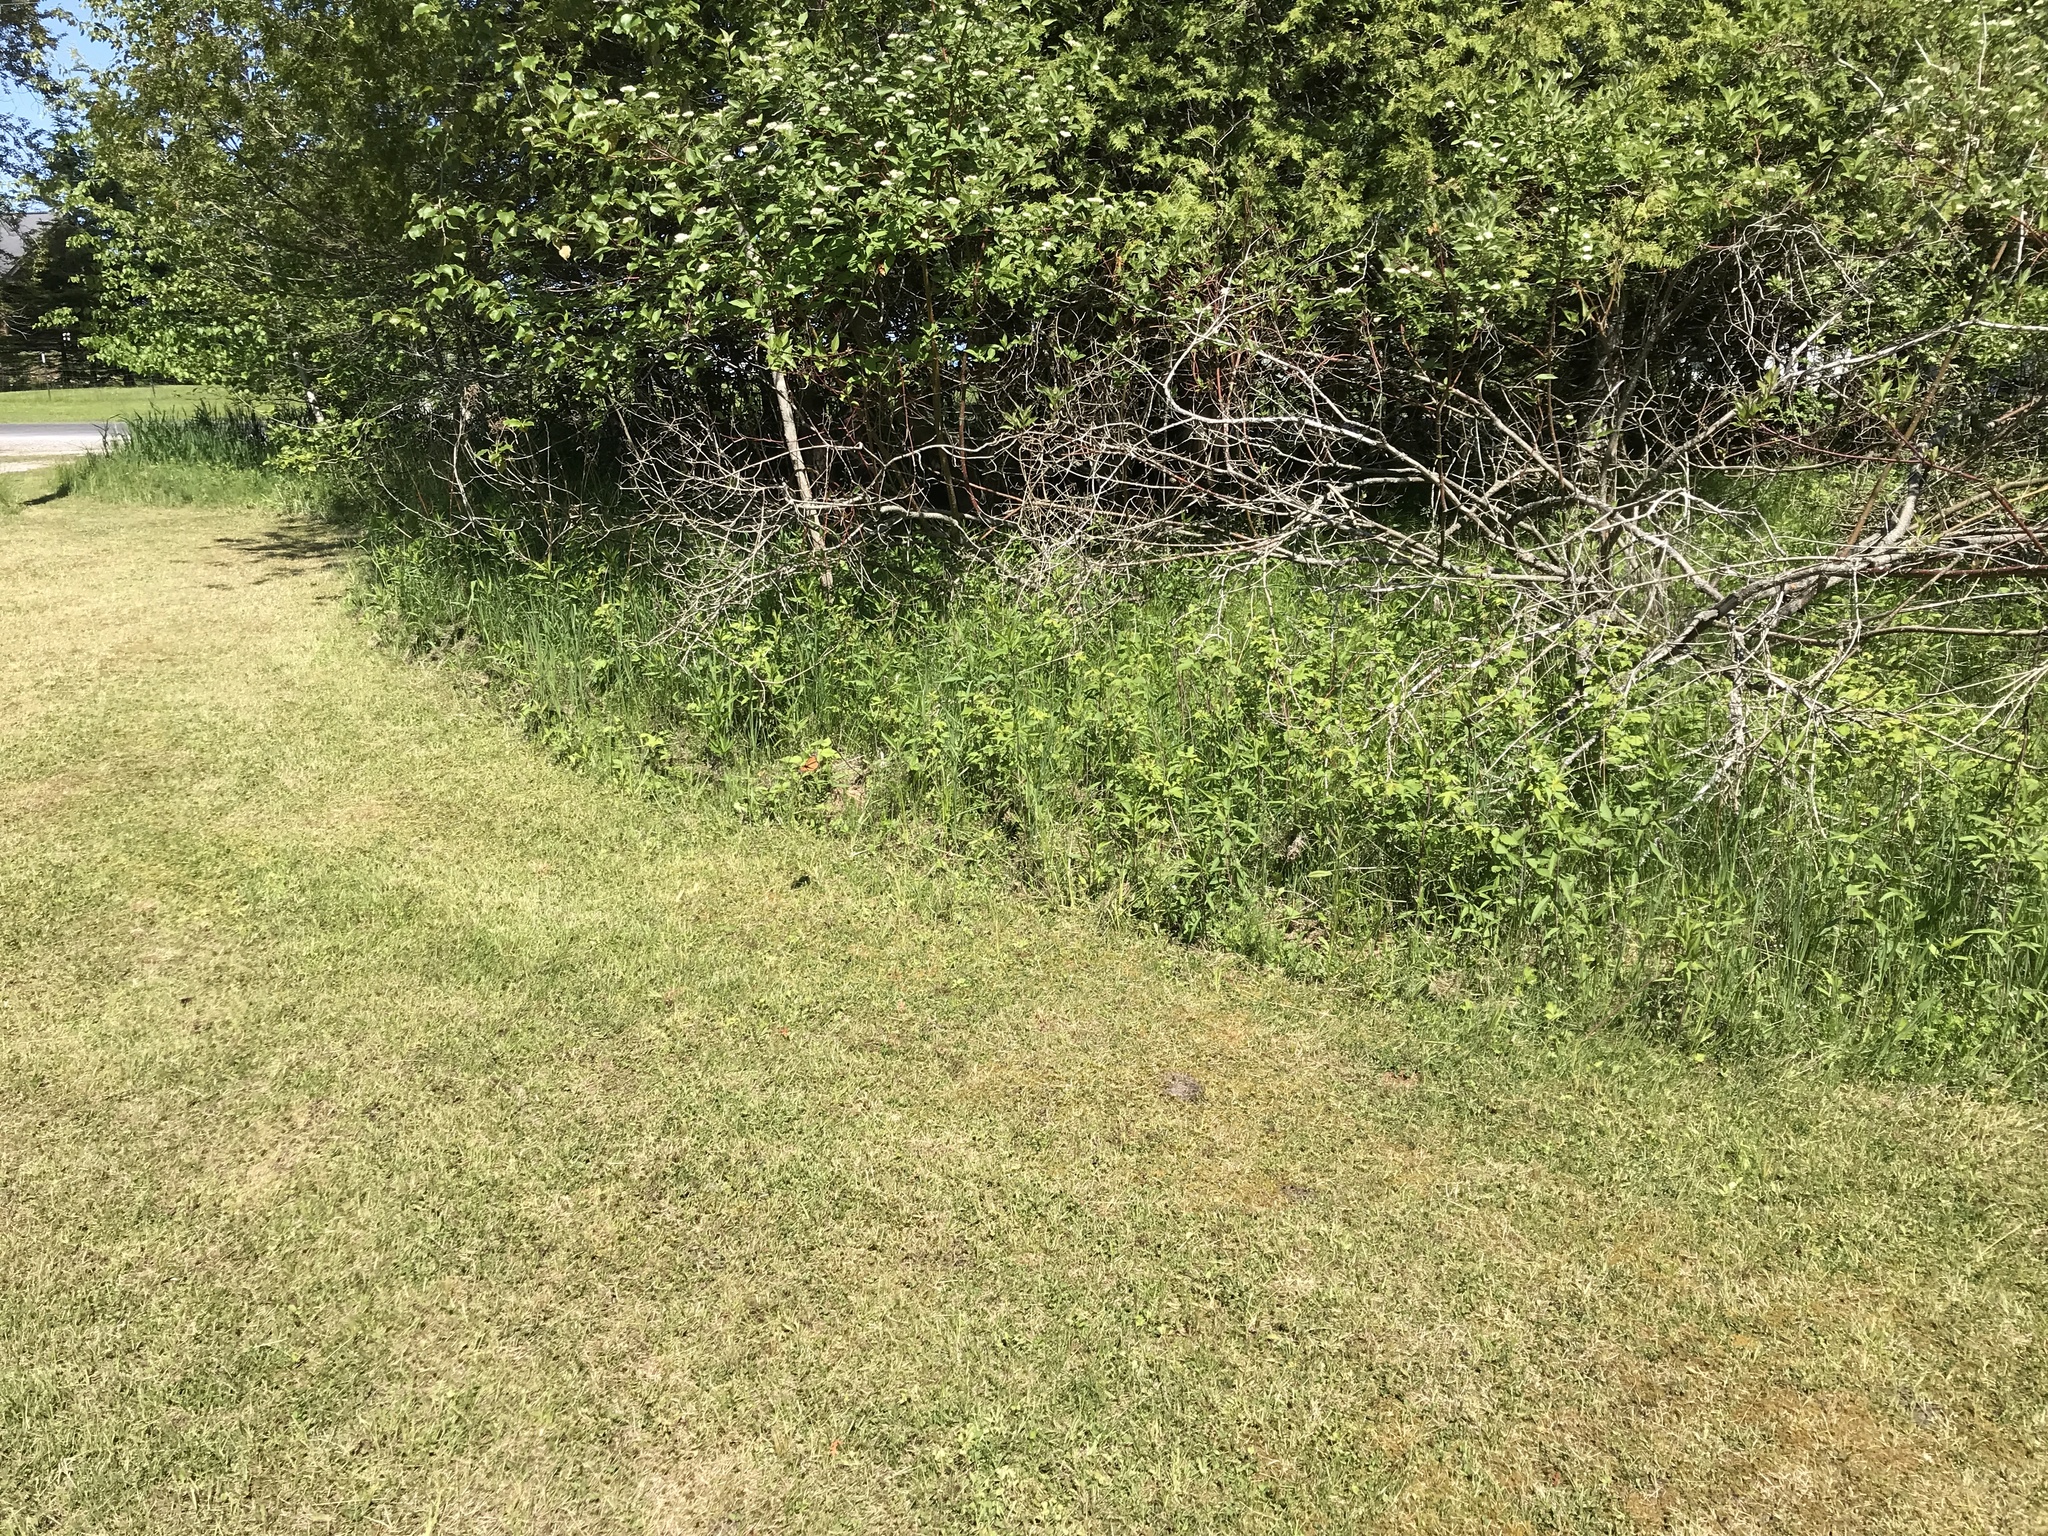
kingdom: Animalia
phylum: Arthropoda
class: Insecta
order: Lepidoptera
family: Nymphalidae
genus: Danaus
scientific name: Danaus plexippus
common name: Monarch
